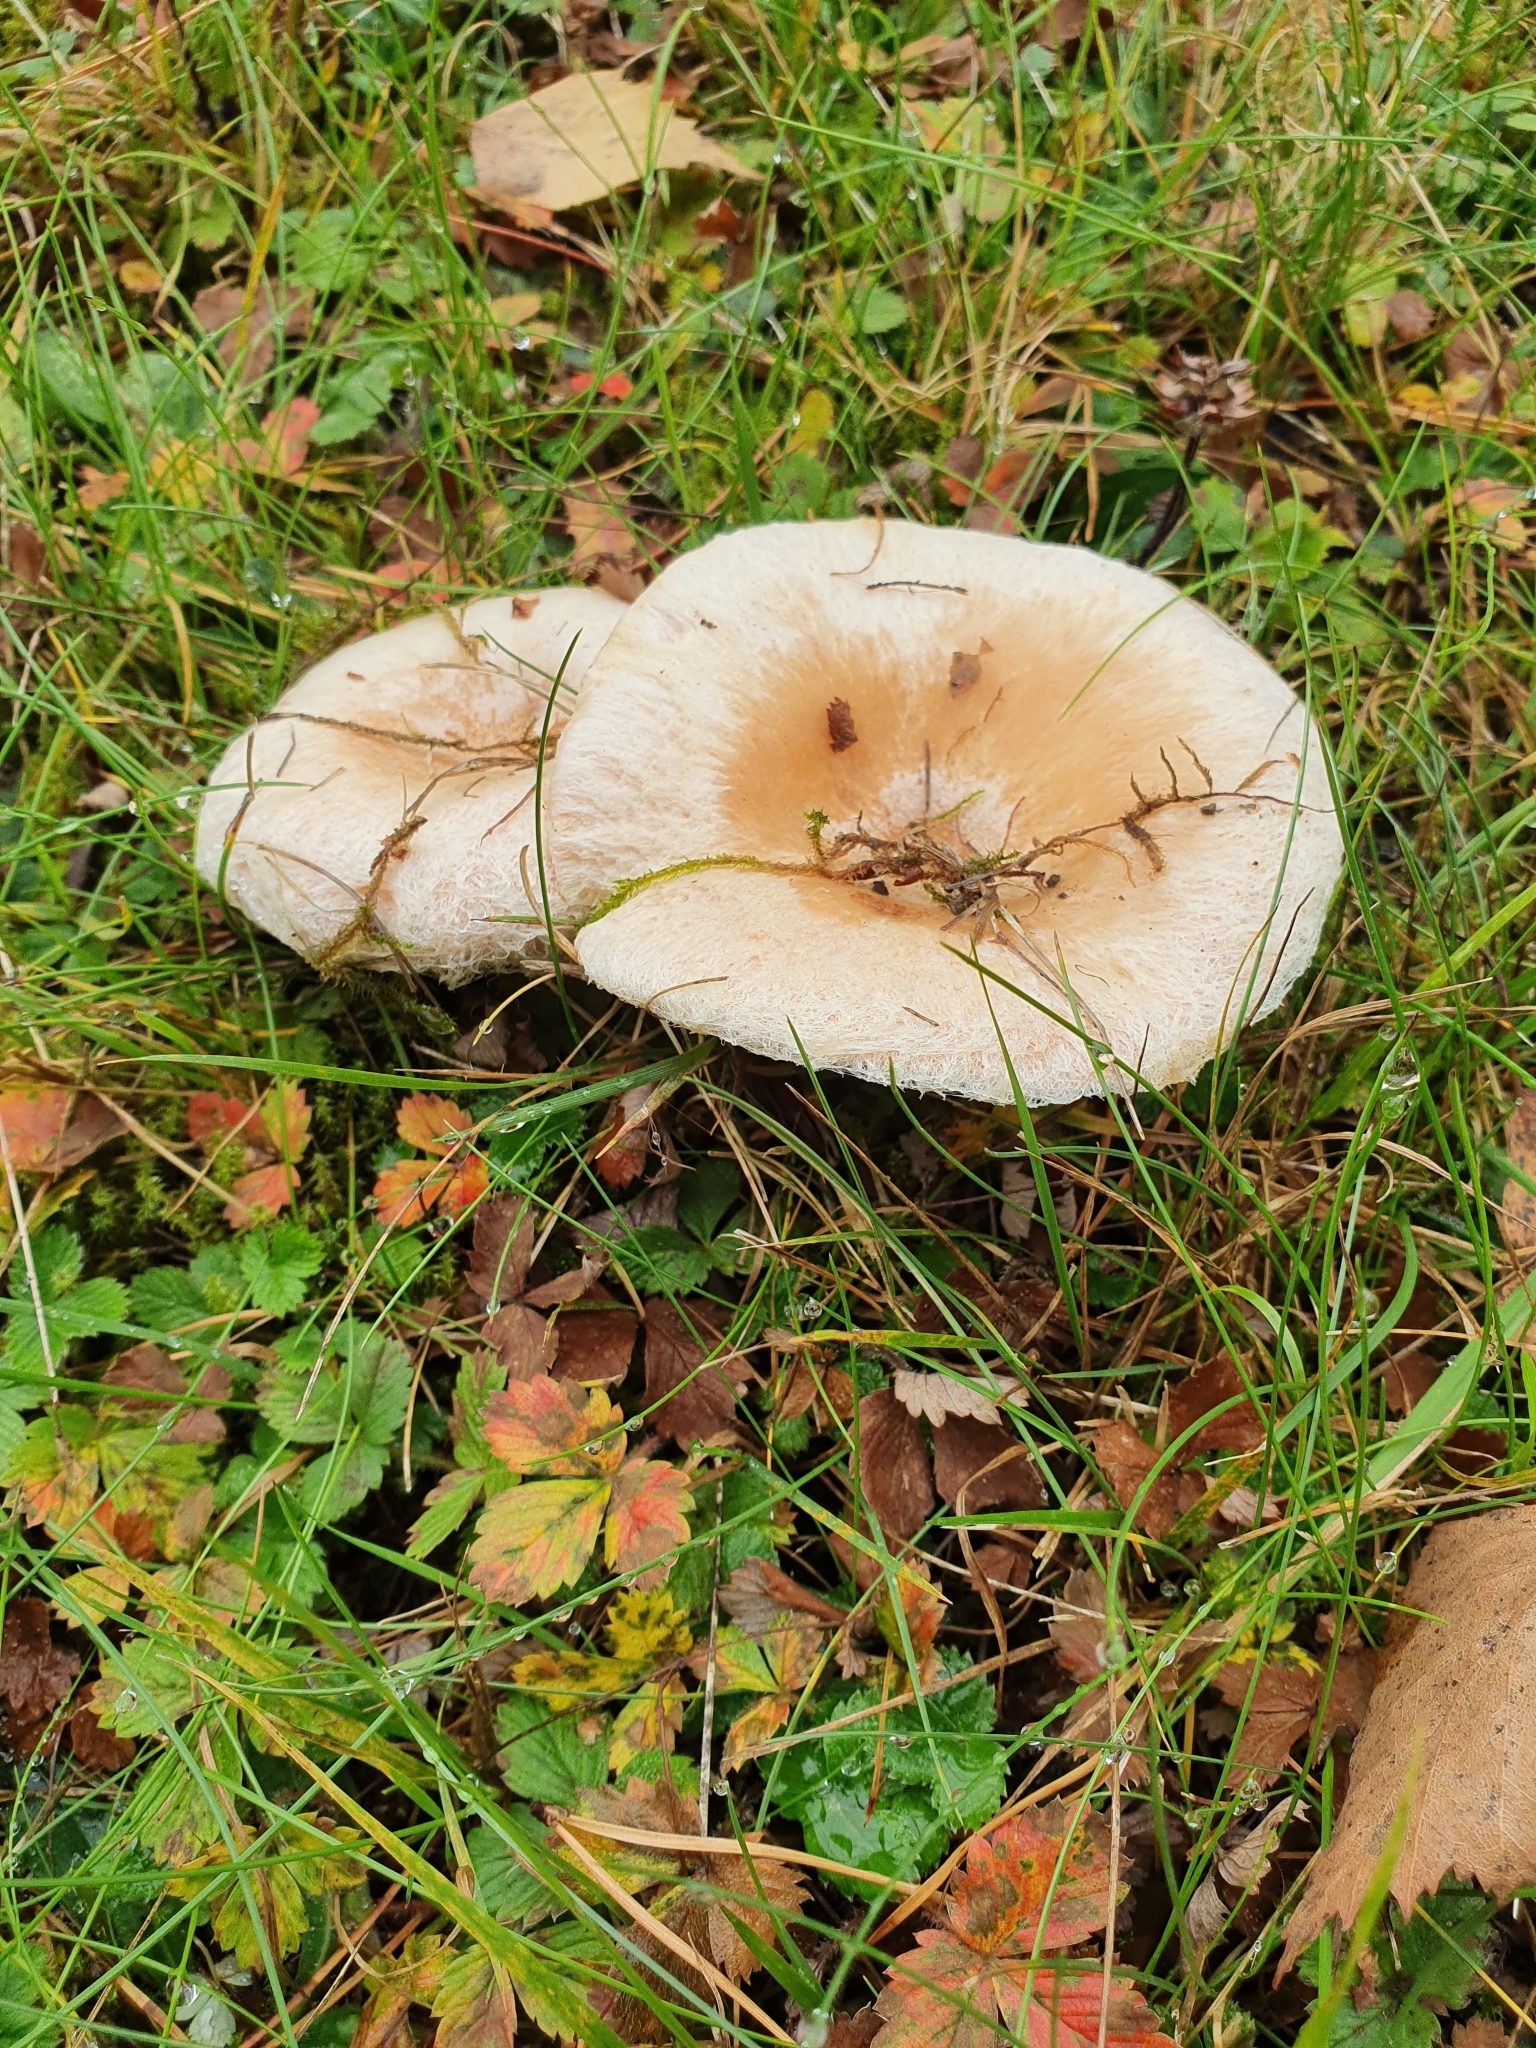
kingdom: Fungi
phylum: Basidiomycota
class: Agaricomycetes
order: Russulales
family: Russulaceae
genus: Lactarius
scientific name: Lactarius pubescens
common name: Bearded milkcap
